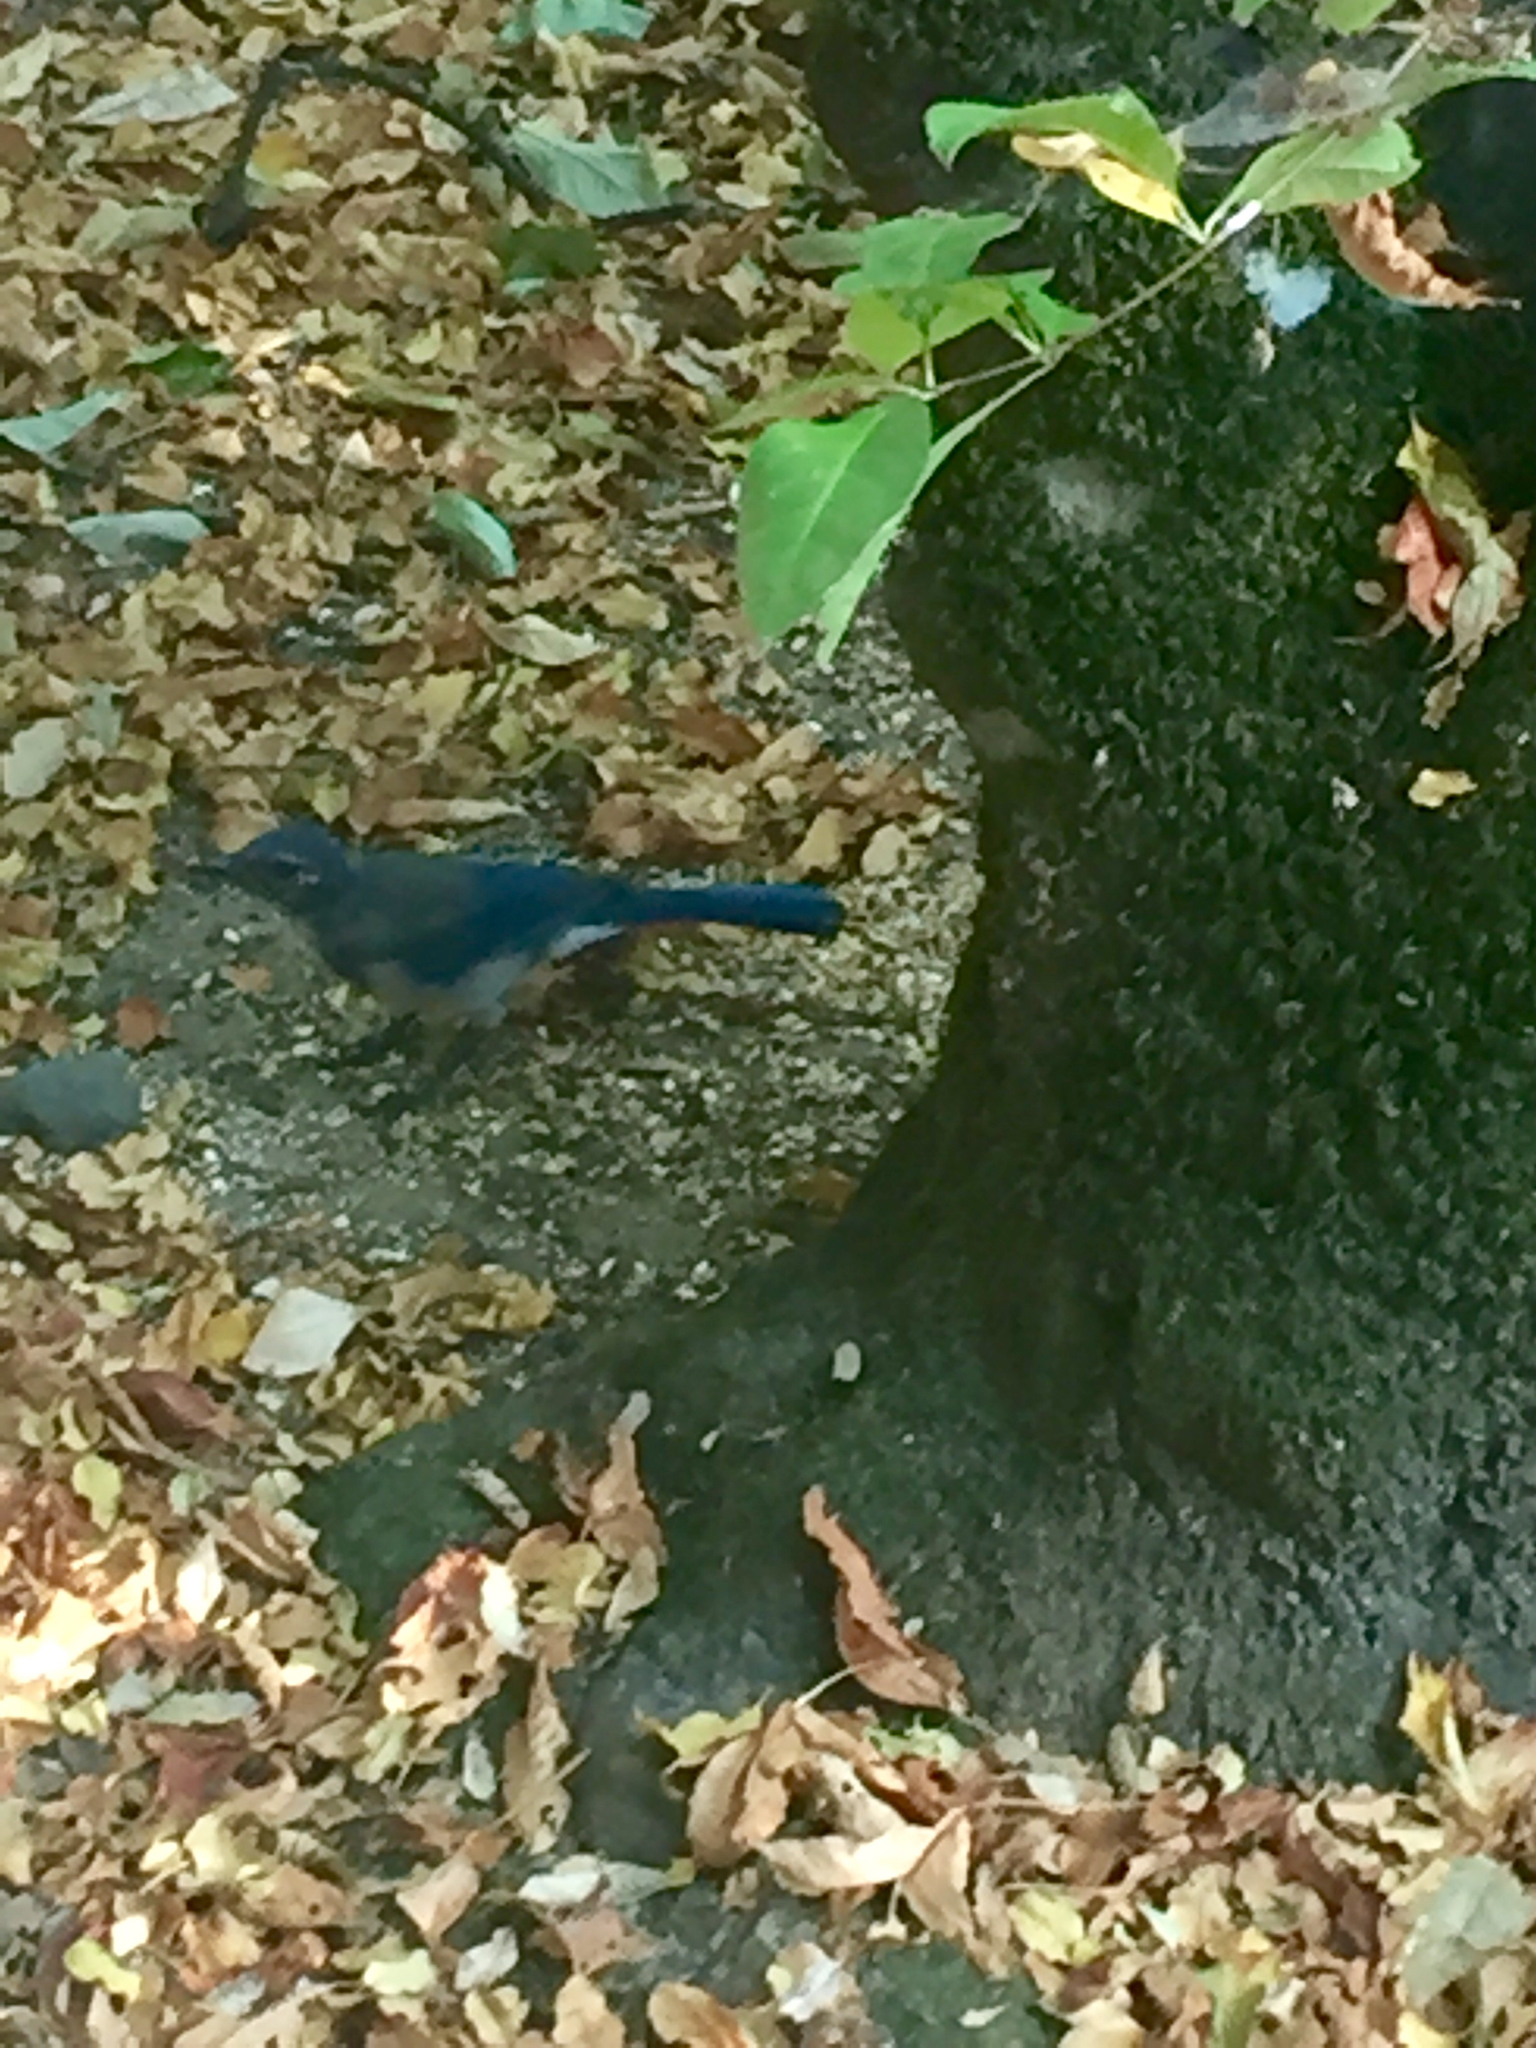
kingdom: Animalia
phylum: Chordata
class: Aves
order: Passeriformes
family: Corvidae
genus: Aphelocoma
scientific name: Aphelocoma californica
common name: California scrub-jay
